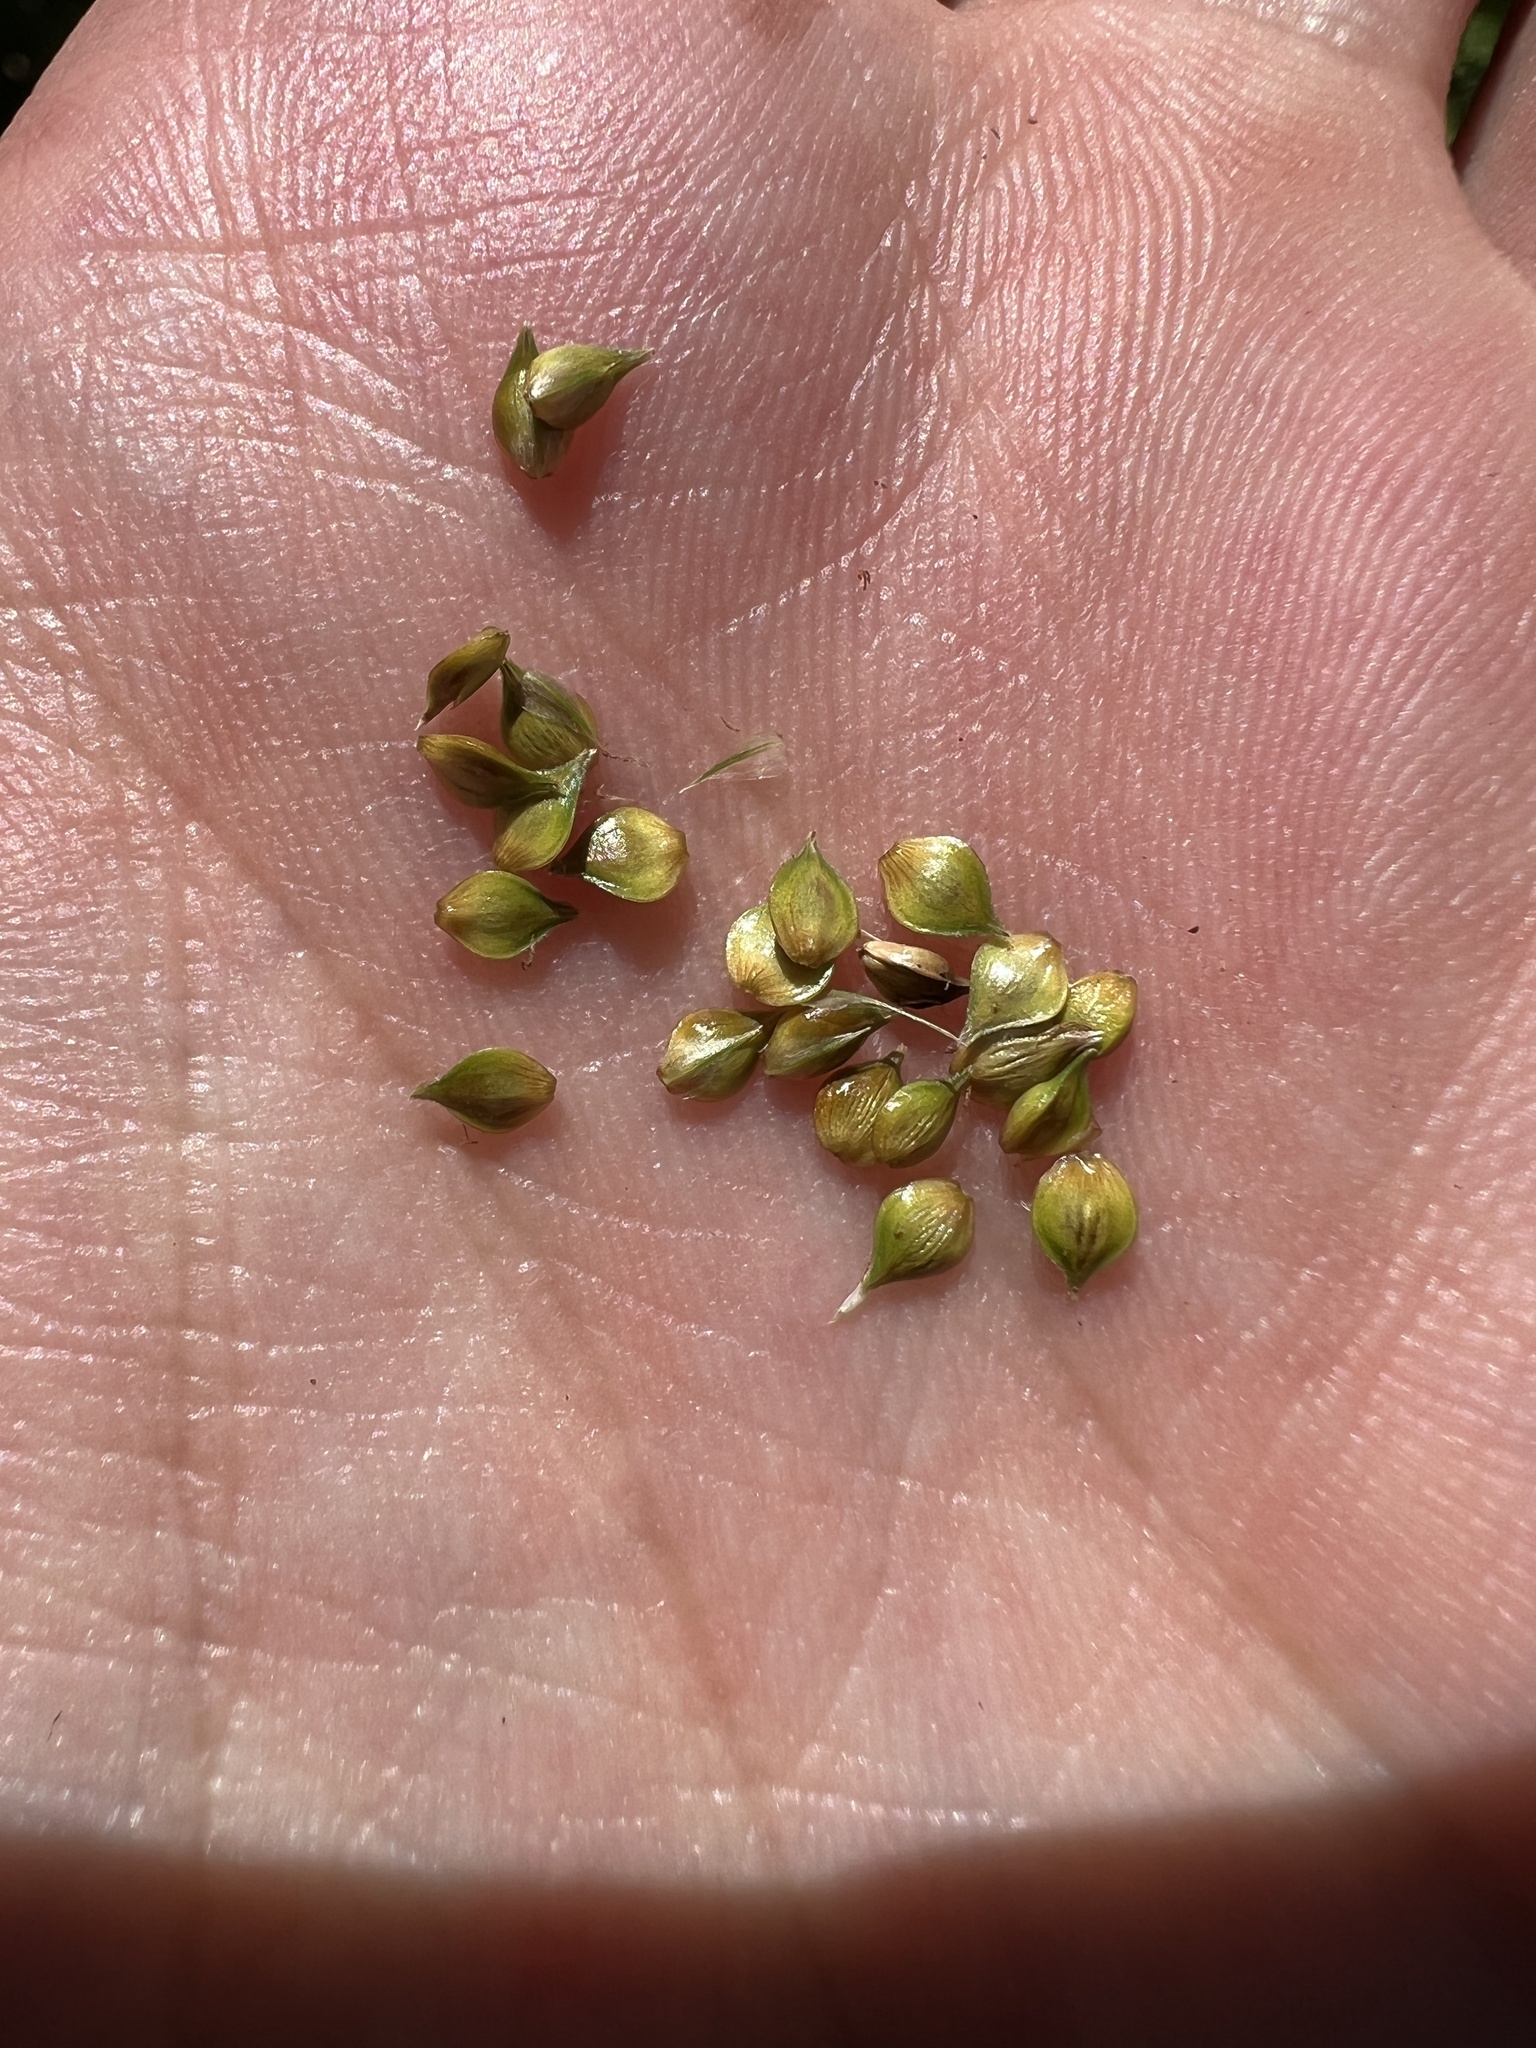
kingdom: Plantae
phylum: Tracheophyta
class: Liliopsida
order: Poales
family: Cyperaceae
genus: Carex
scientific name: Carex muehlenbergii
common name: Muhlenberg's bracted sedge
